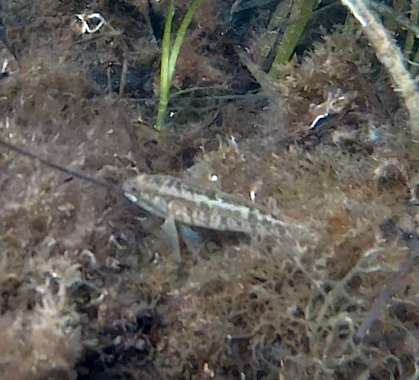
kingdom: Animalia
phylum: Chordata
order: Perciformes
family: Gobiidae
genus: Zosterisessor
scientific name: Zosterisessor ophiocephalus
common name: Grass goby
